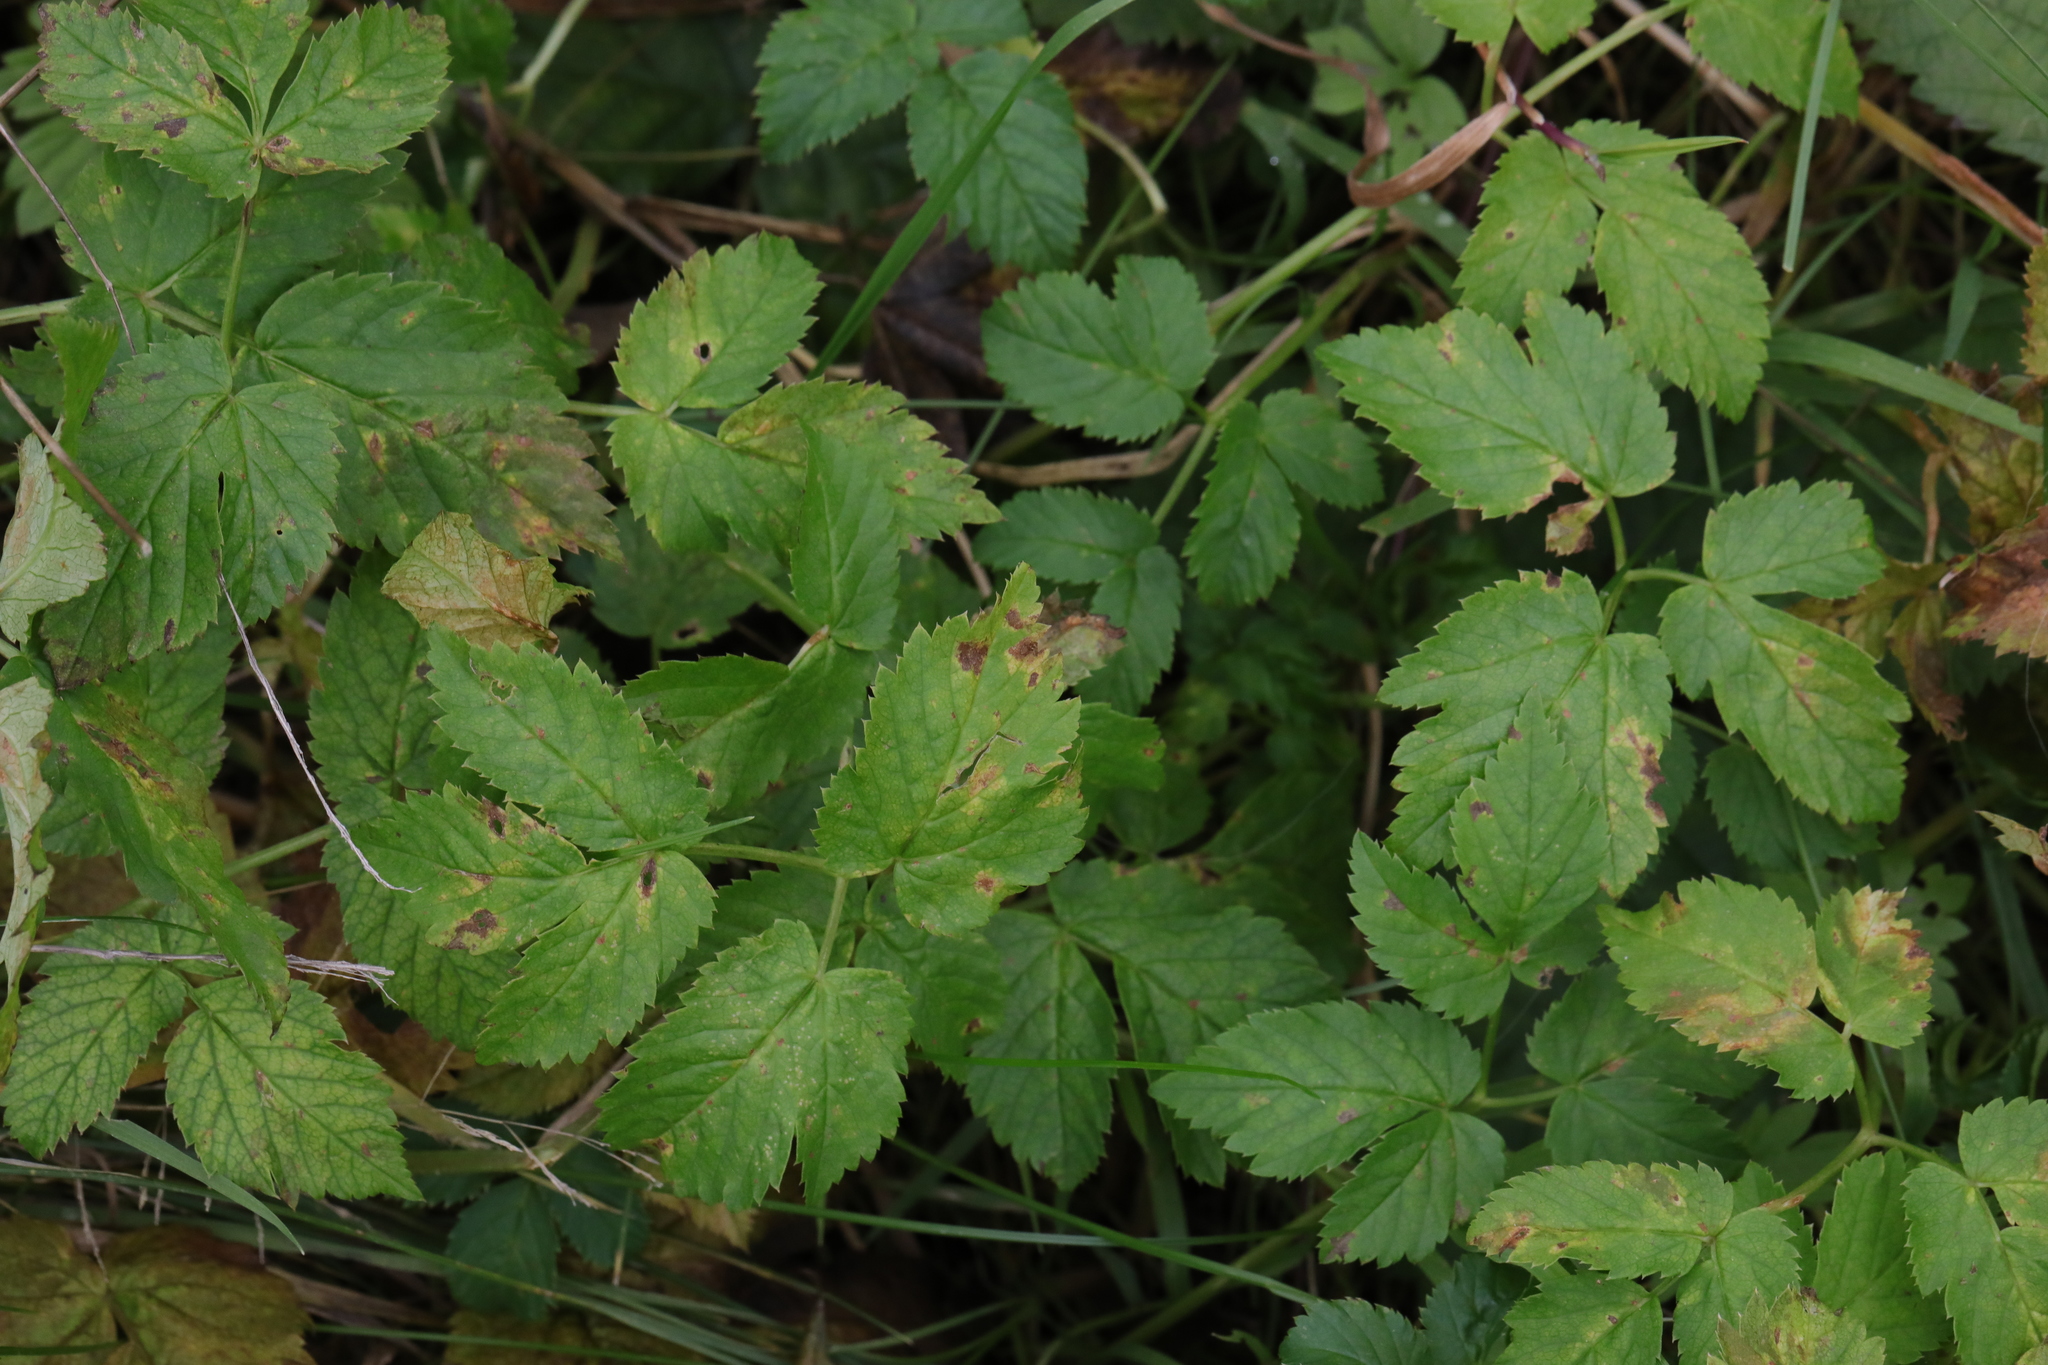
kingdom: Plantae
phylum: Tracheophyta
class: Magnoliopsida
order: Apiales
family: Apiaceae
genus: Aegopodium
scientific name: Aegopodium podagraria
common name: Ground-elder
